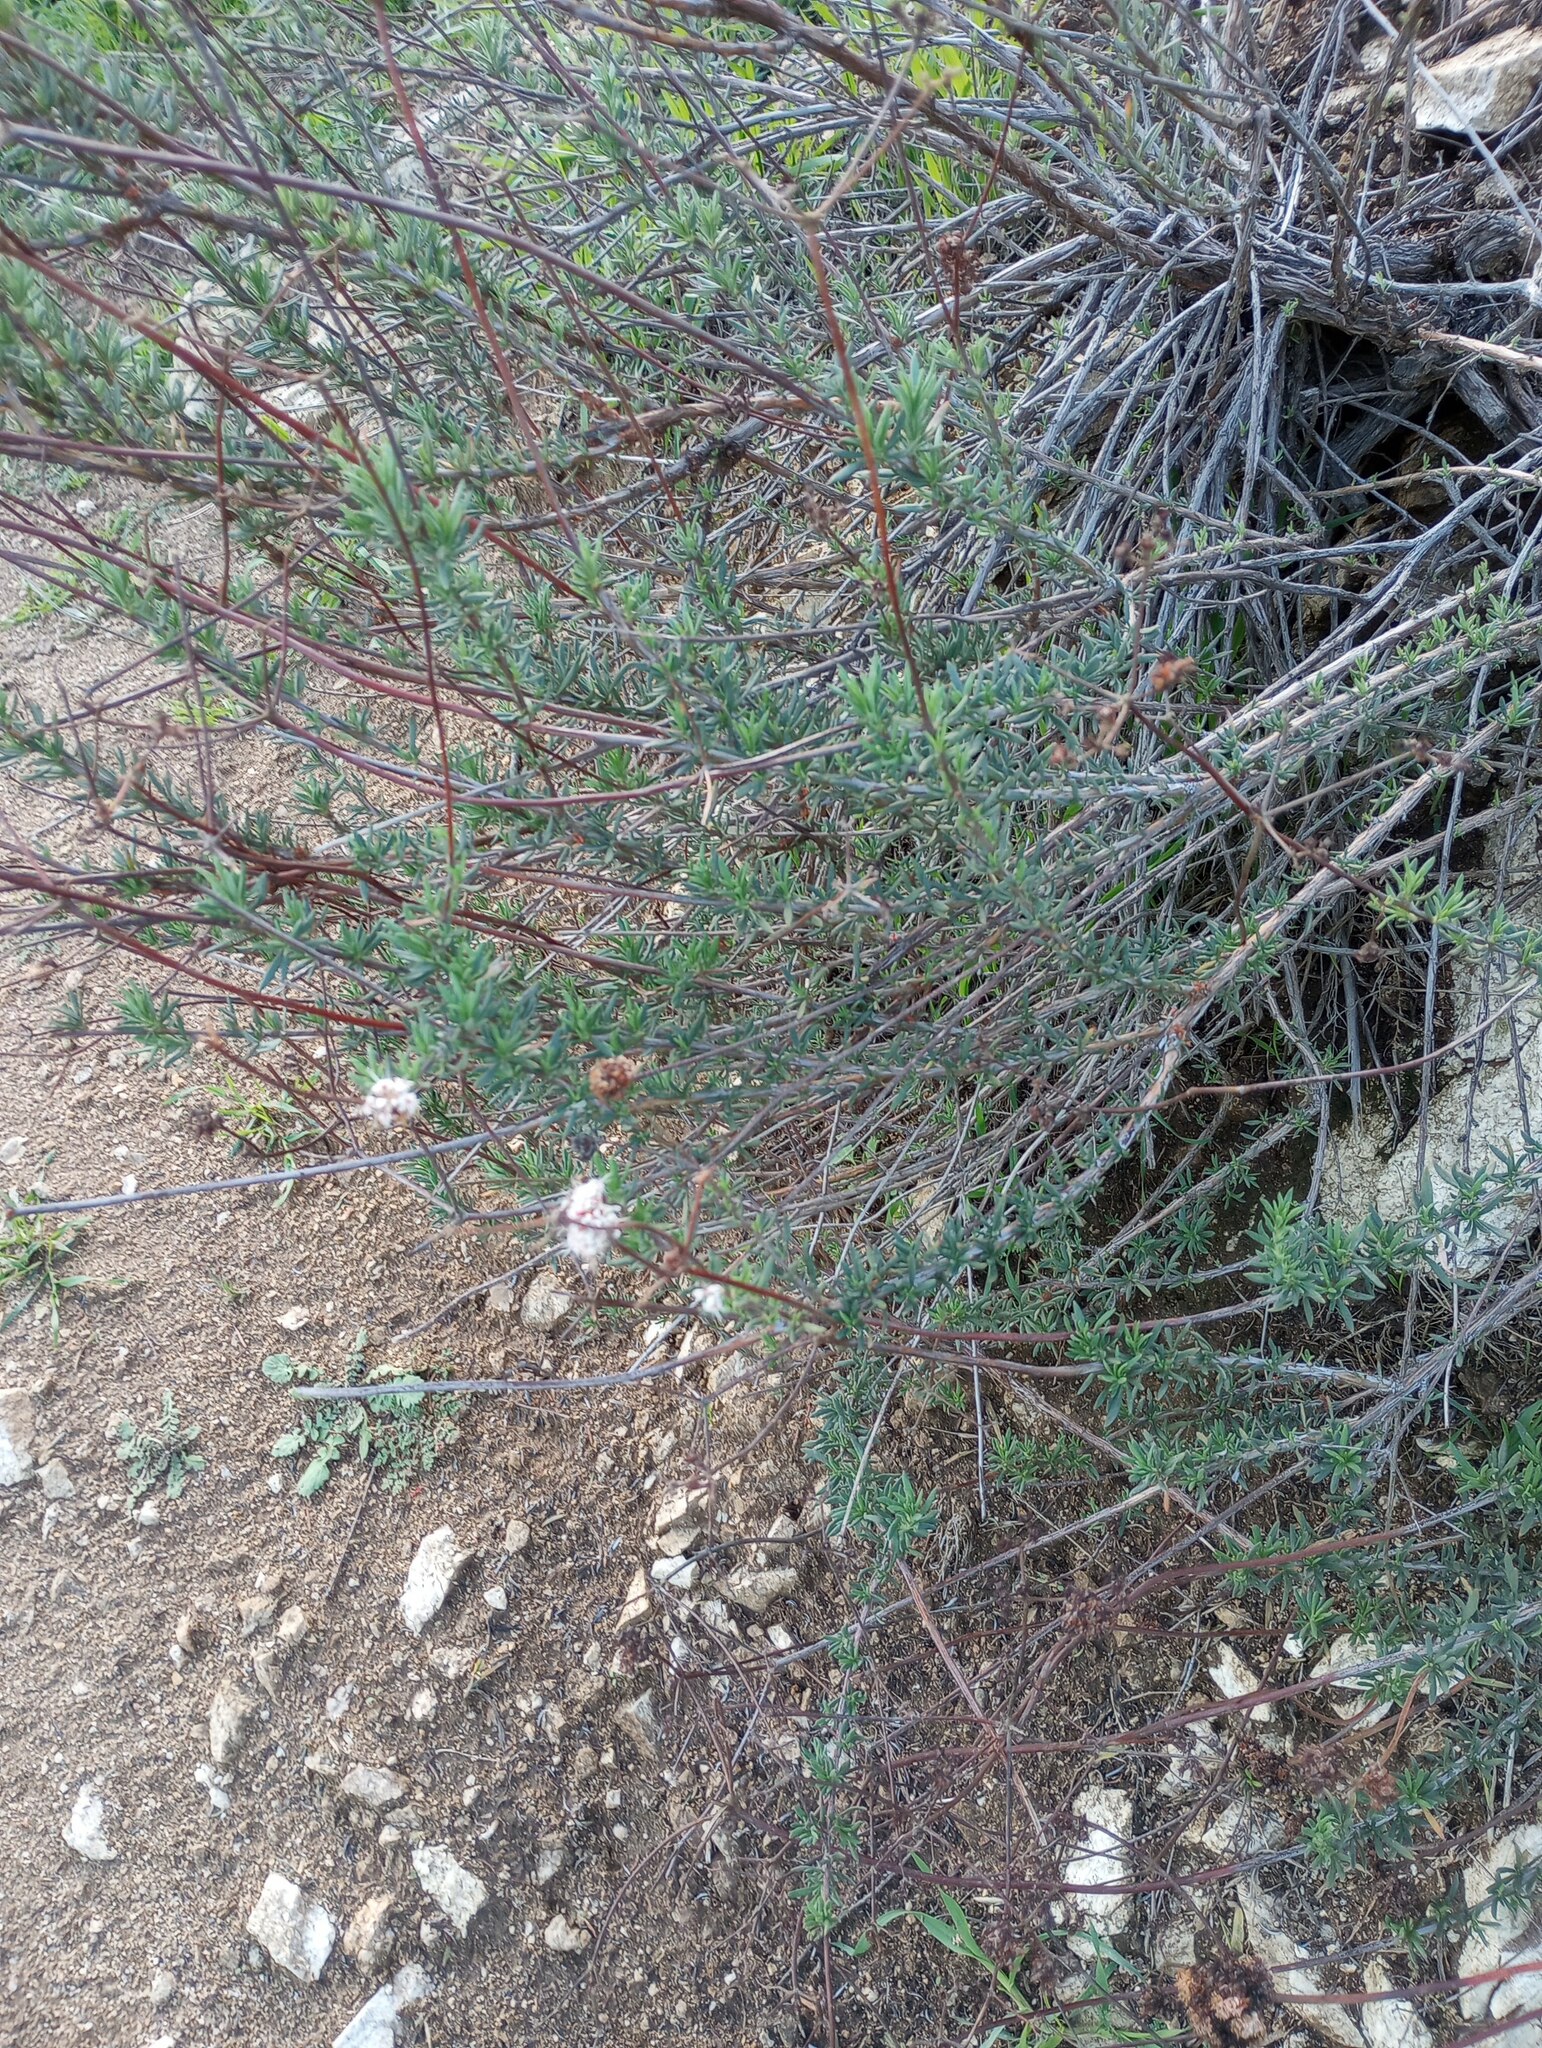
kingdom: Plantae
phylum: Tracheophyta
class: Magnoliopsida
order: Caryophyllales
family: Polygonaceae
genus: Eriogonum
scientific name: Eriogonum fasciculatum
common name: California wild buckwheat
